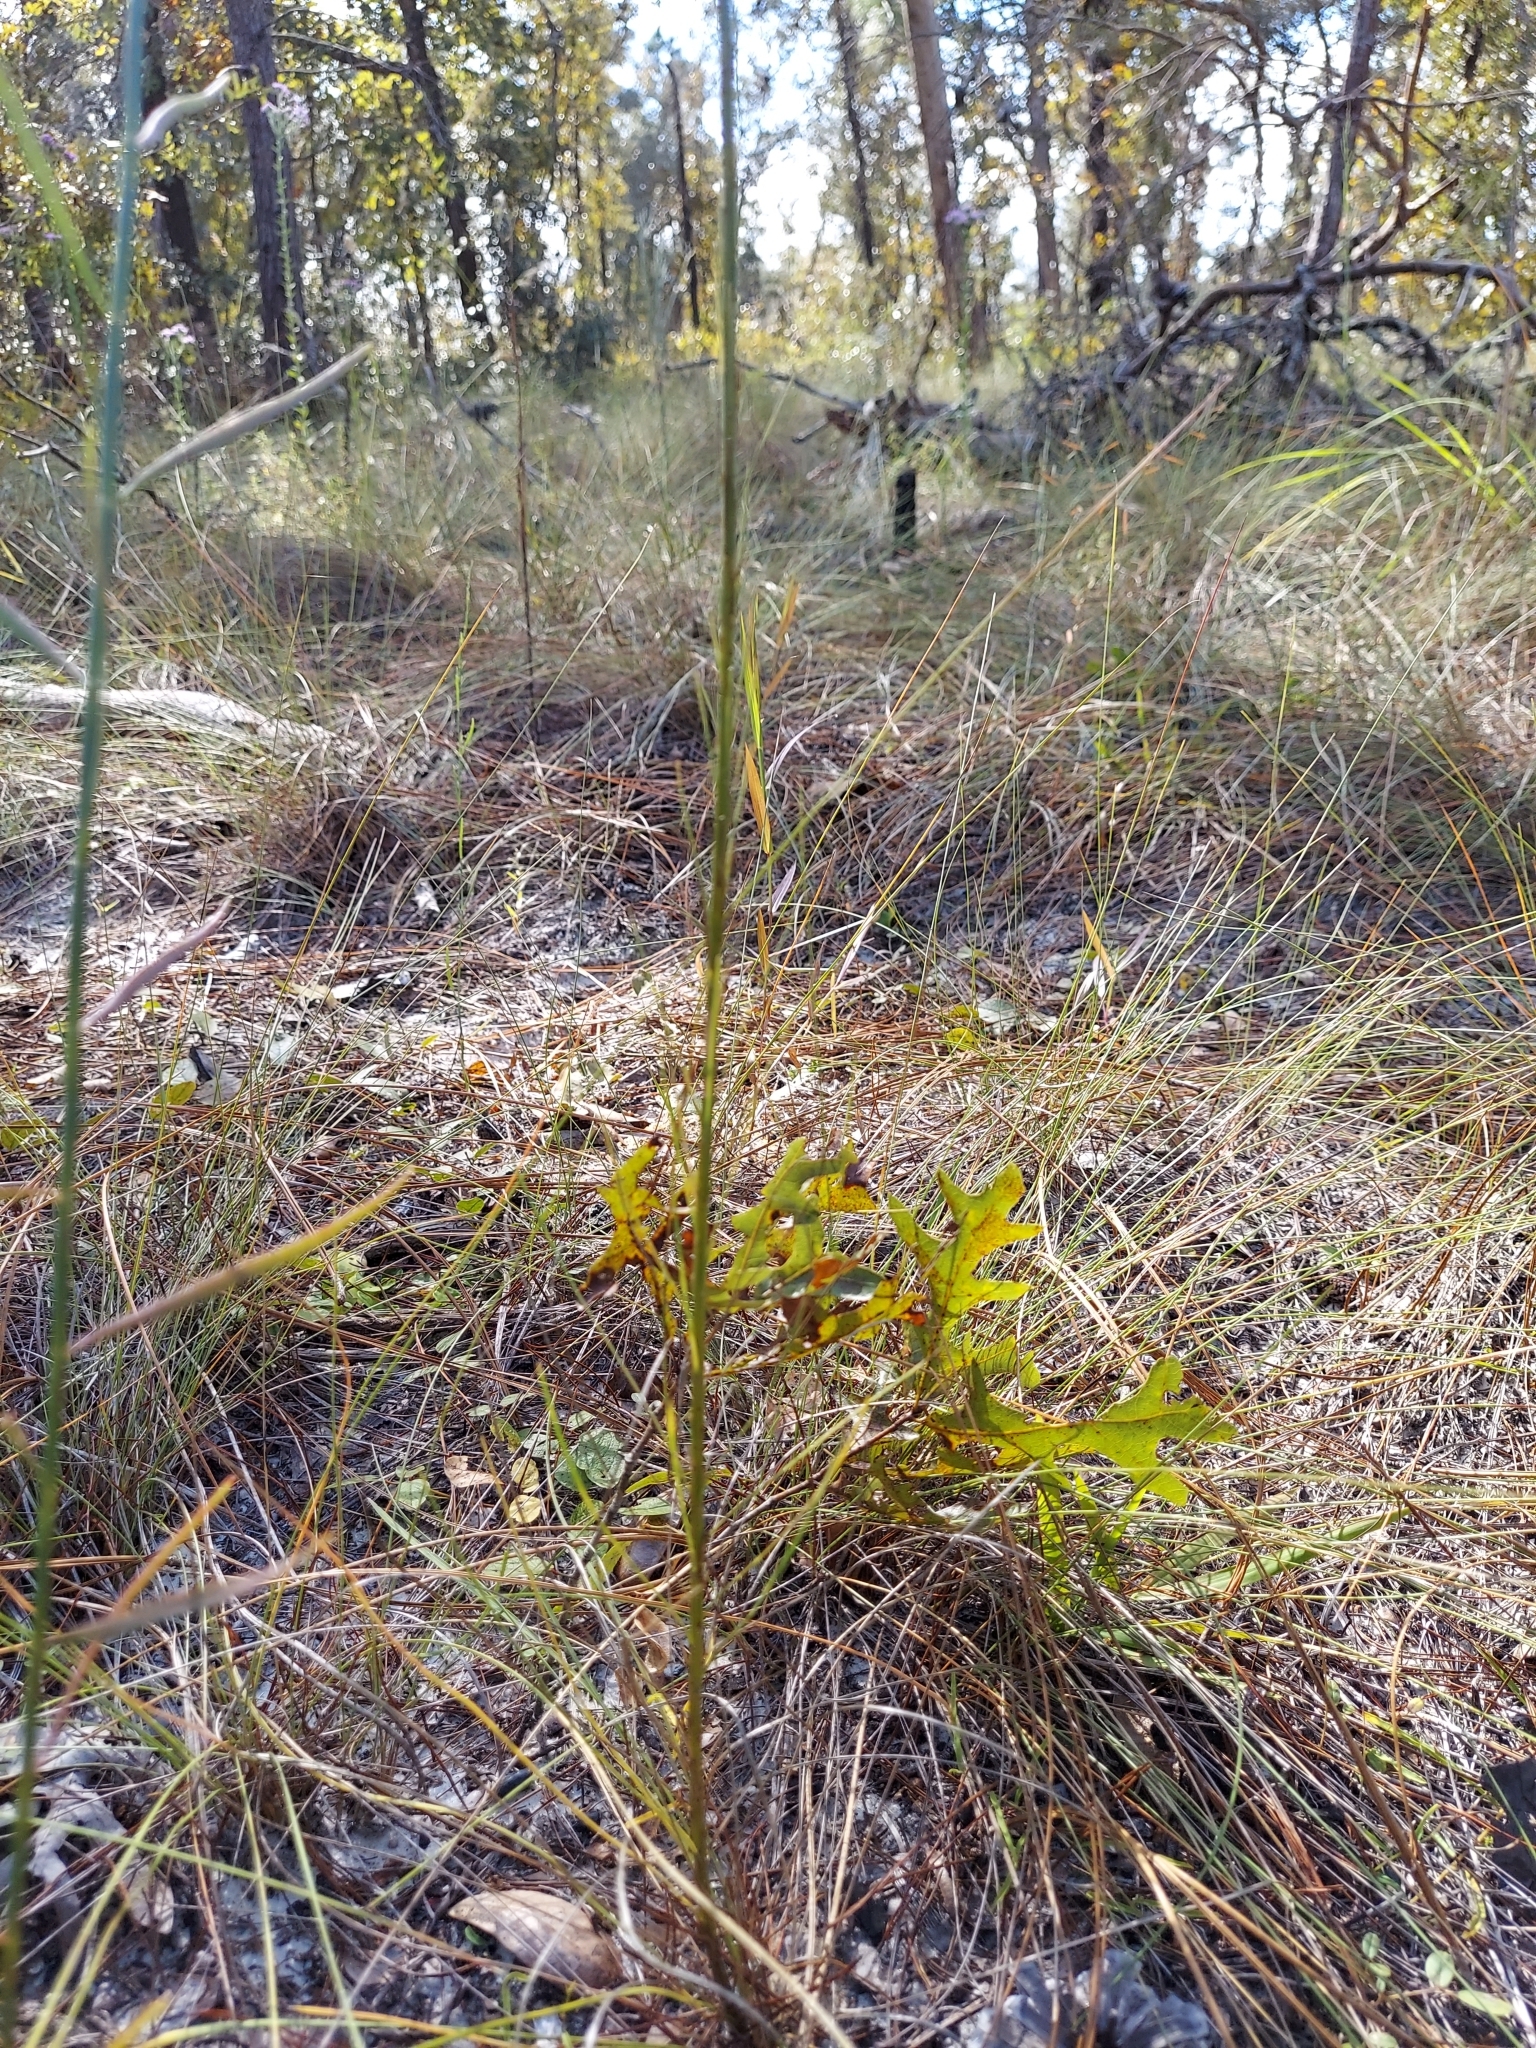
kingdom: Plantae
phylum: Tracheophyta
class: Magnoliopsida
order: Asterales
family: Asteraceae
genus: Liatris
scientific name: Liatris tenuifolia
